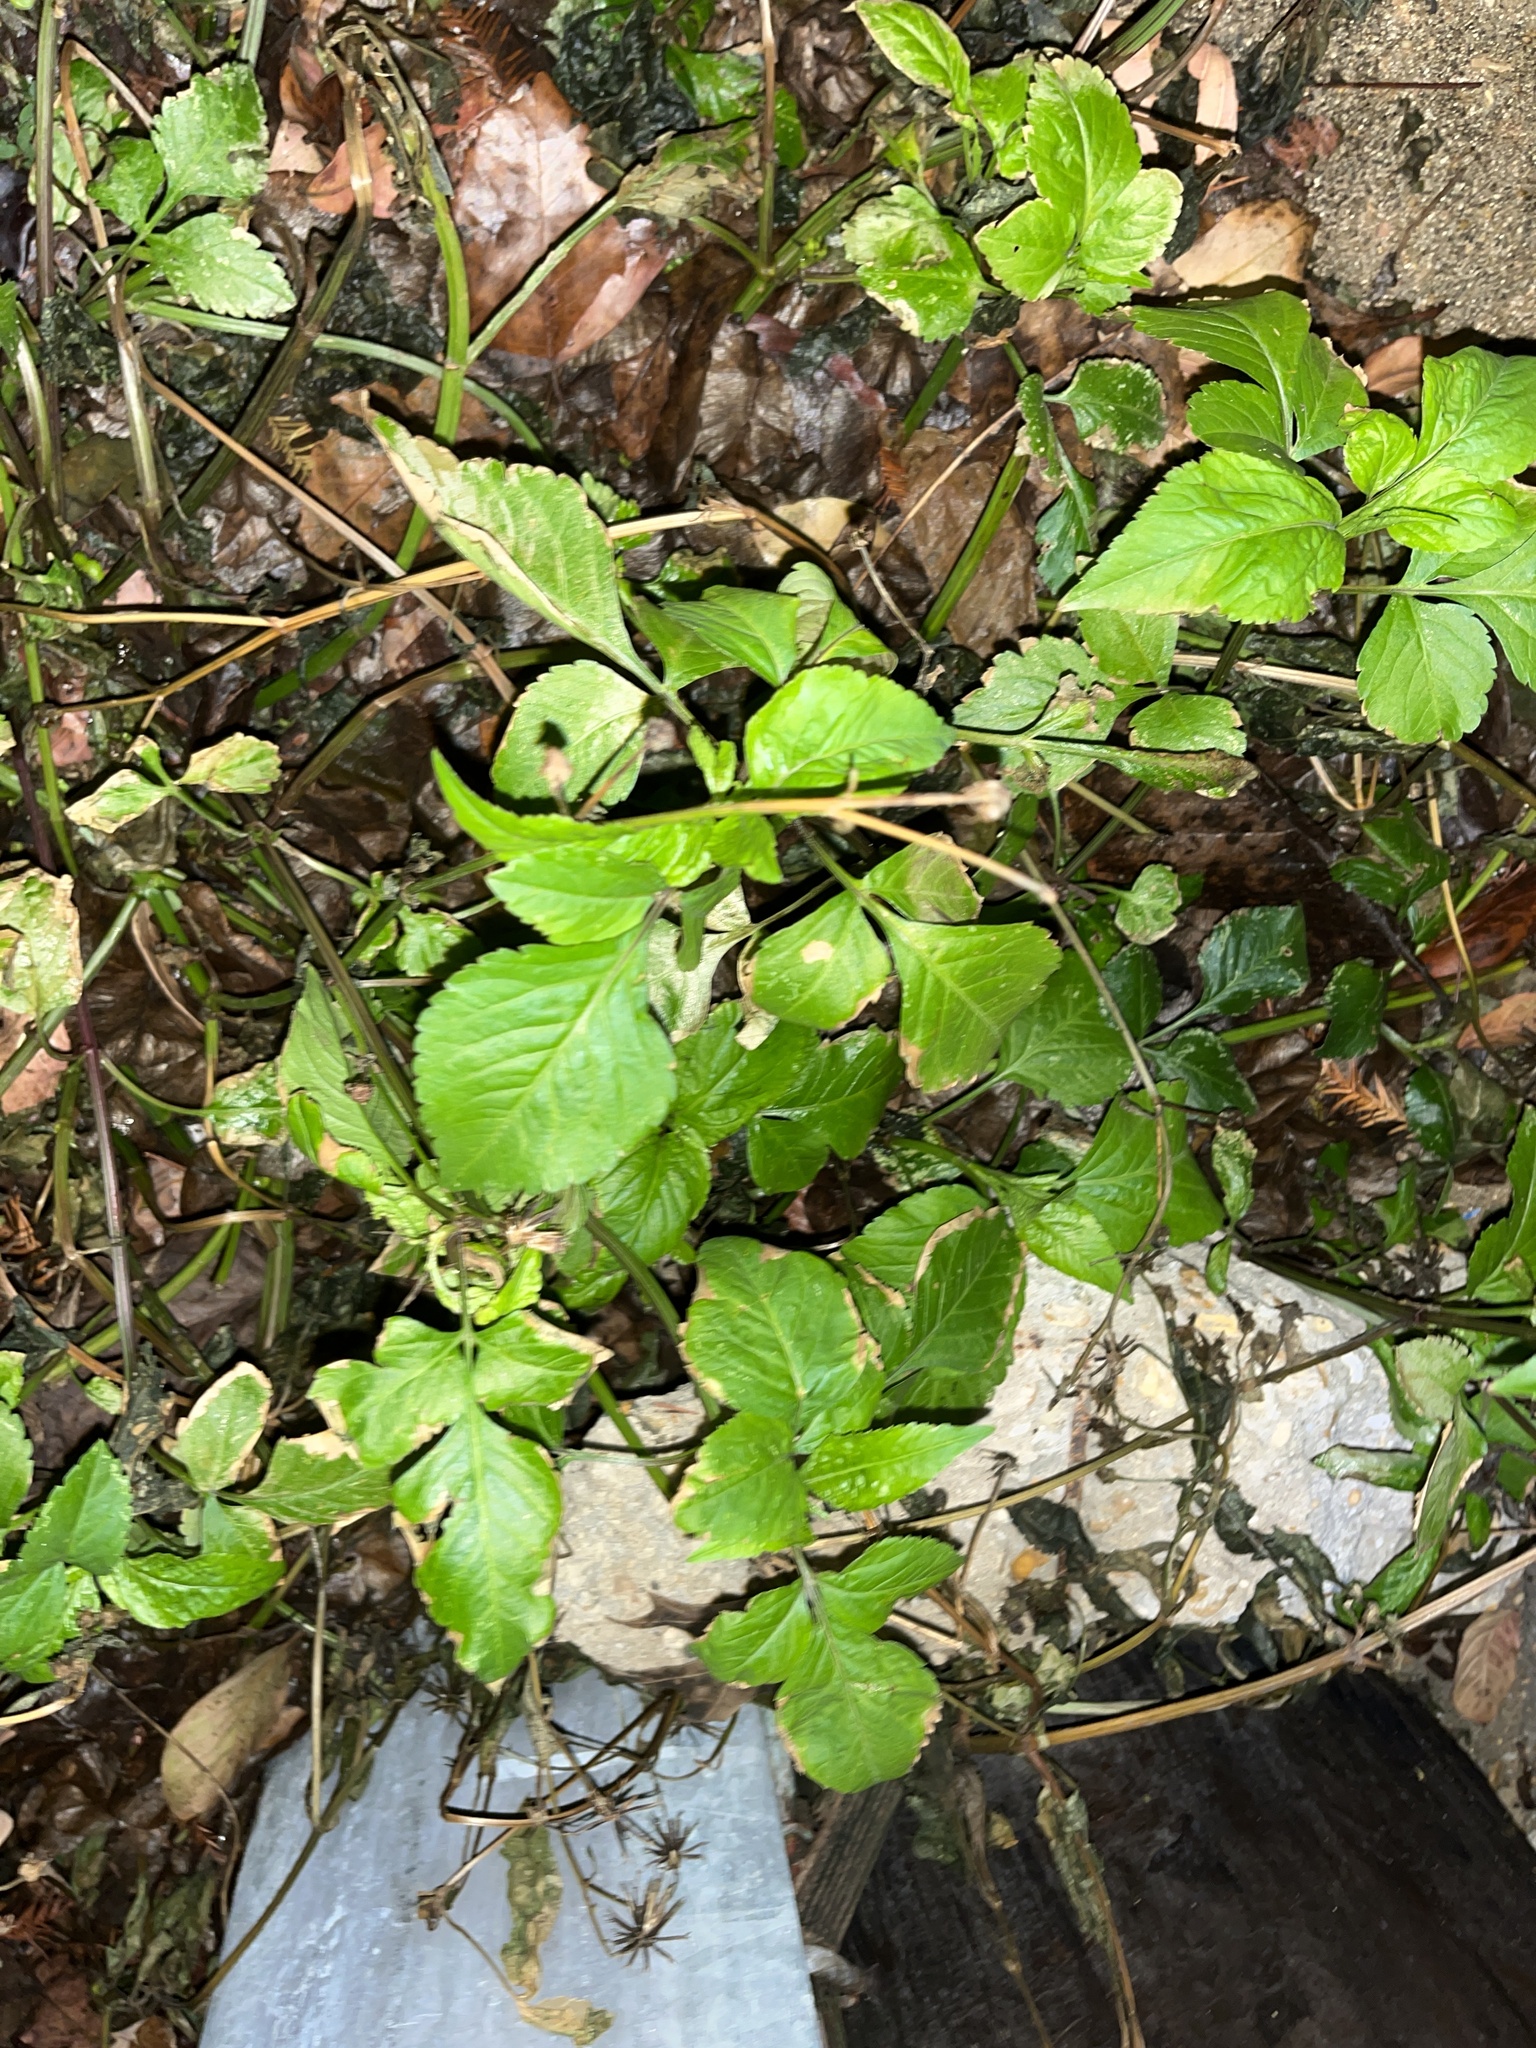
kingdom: Plantae
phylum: Tracheophyta
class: Magnoliopsida
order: Asterales
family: Asteraceae
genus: Bidens
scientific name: Bidens alba
